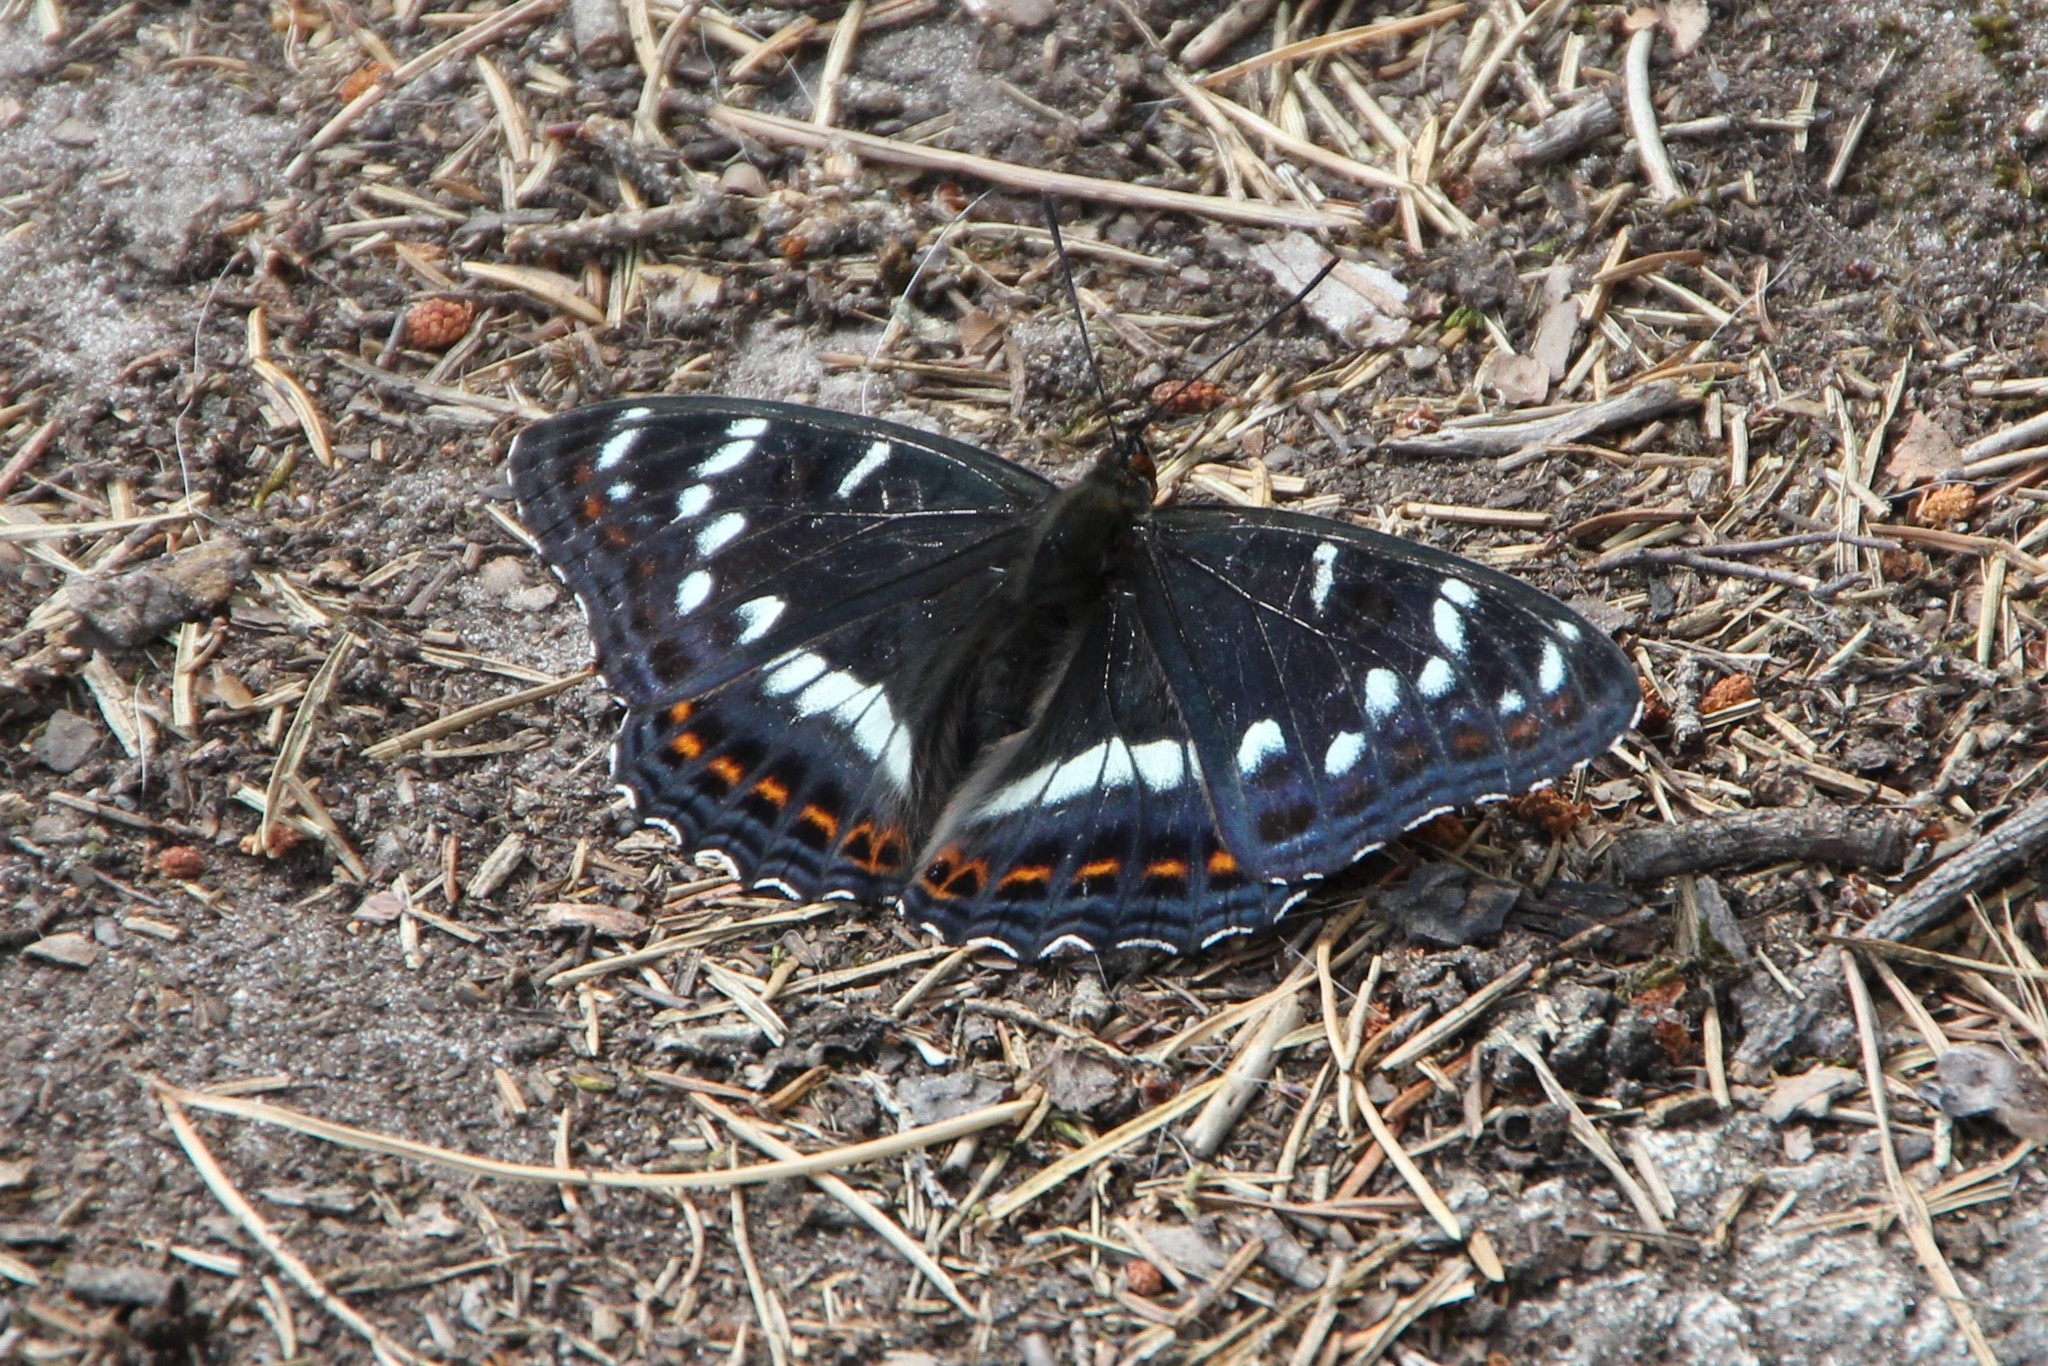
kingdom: Animalia
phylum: Arthropoda
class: Insecta
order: Lepidoptera
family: Nymphalidae
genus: Limenitis
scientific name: Limenitis populi
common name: Poplar admiral
